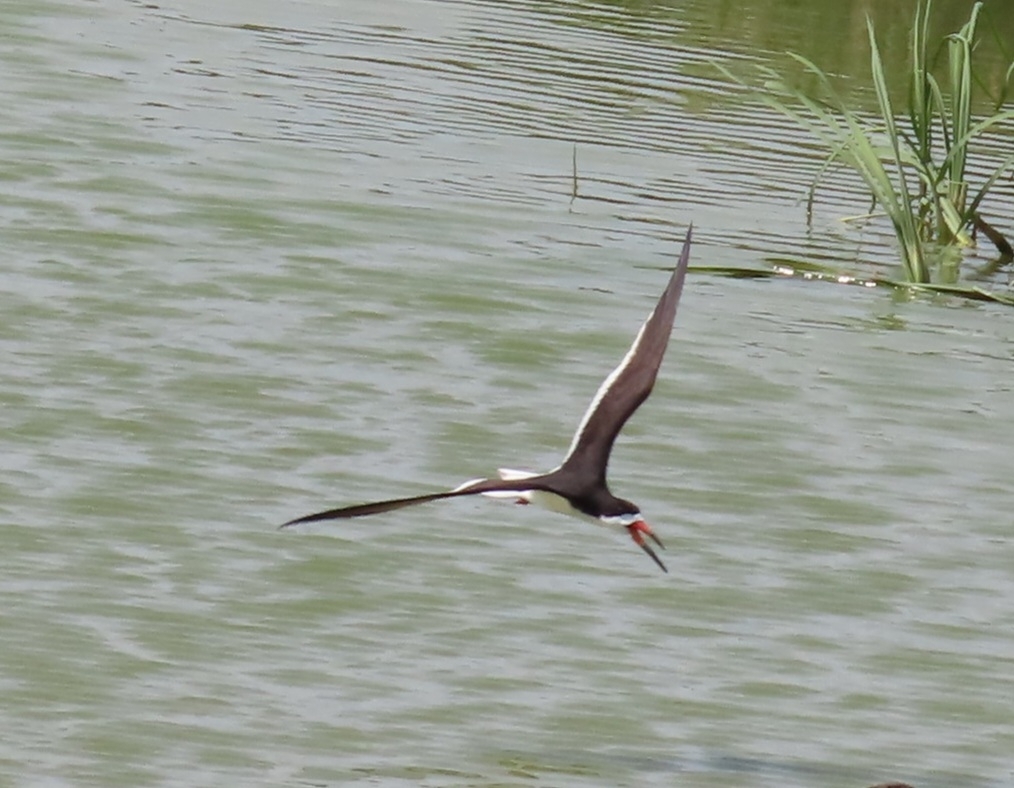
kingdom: Animalia
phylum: Chordata
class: Aves
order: Charadriiformes
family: Laridae
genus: Rynchops
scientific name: Rynchops niger
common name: Black skimmer
